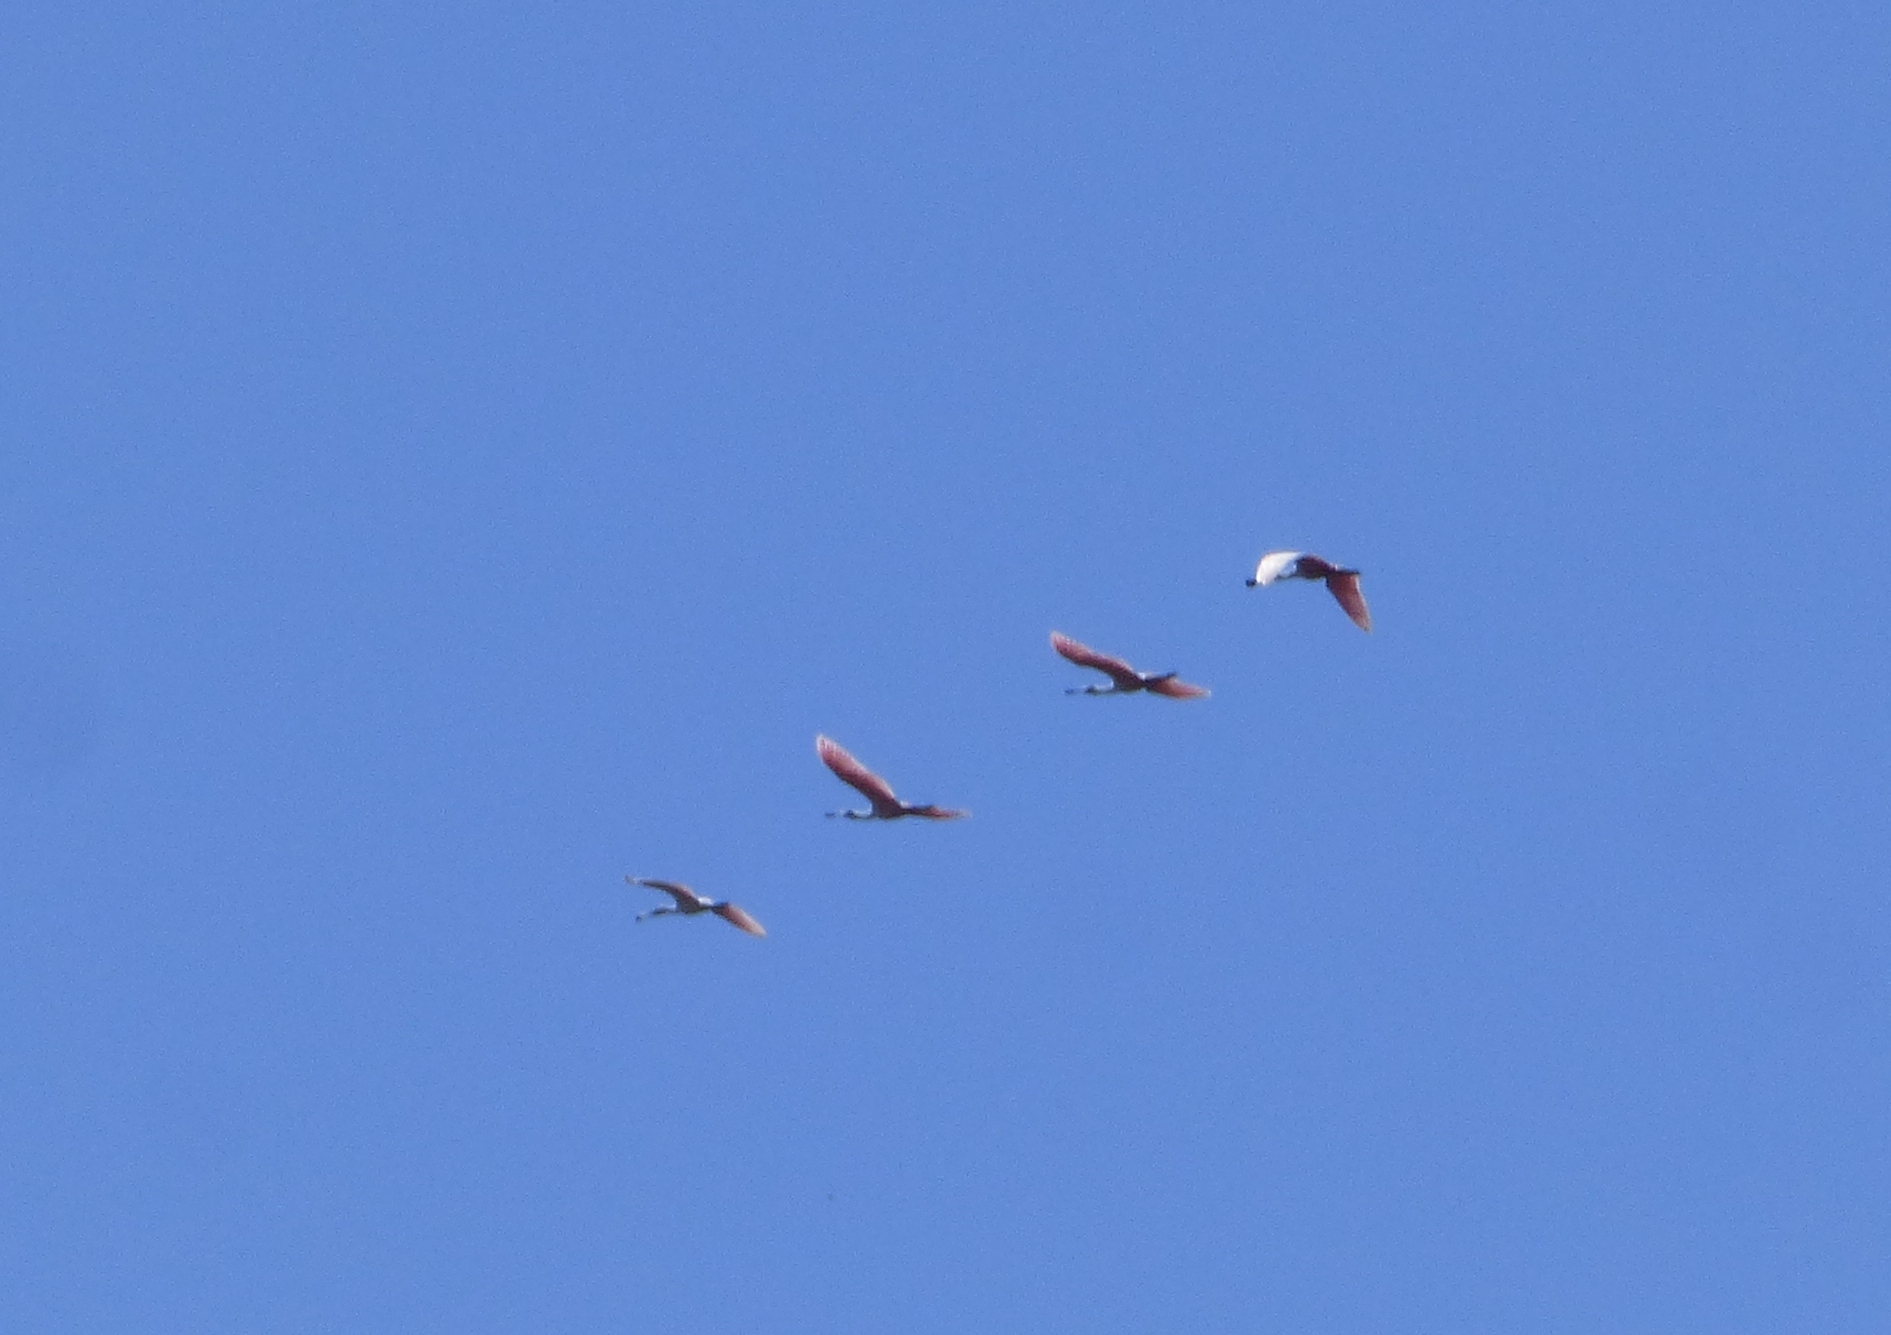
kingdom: Animalia
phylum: Chordata
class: Aves
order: Pelecaniformes
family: Threskiornithidae
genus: Platalea
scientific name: Platalea ajaja
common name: Roseate spoonbill
